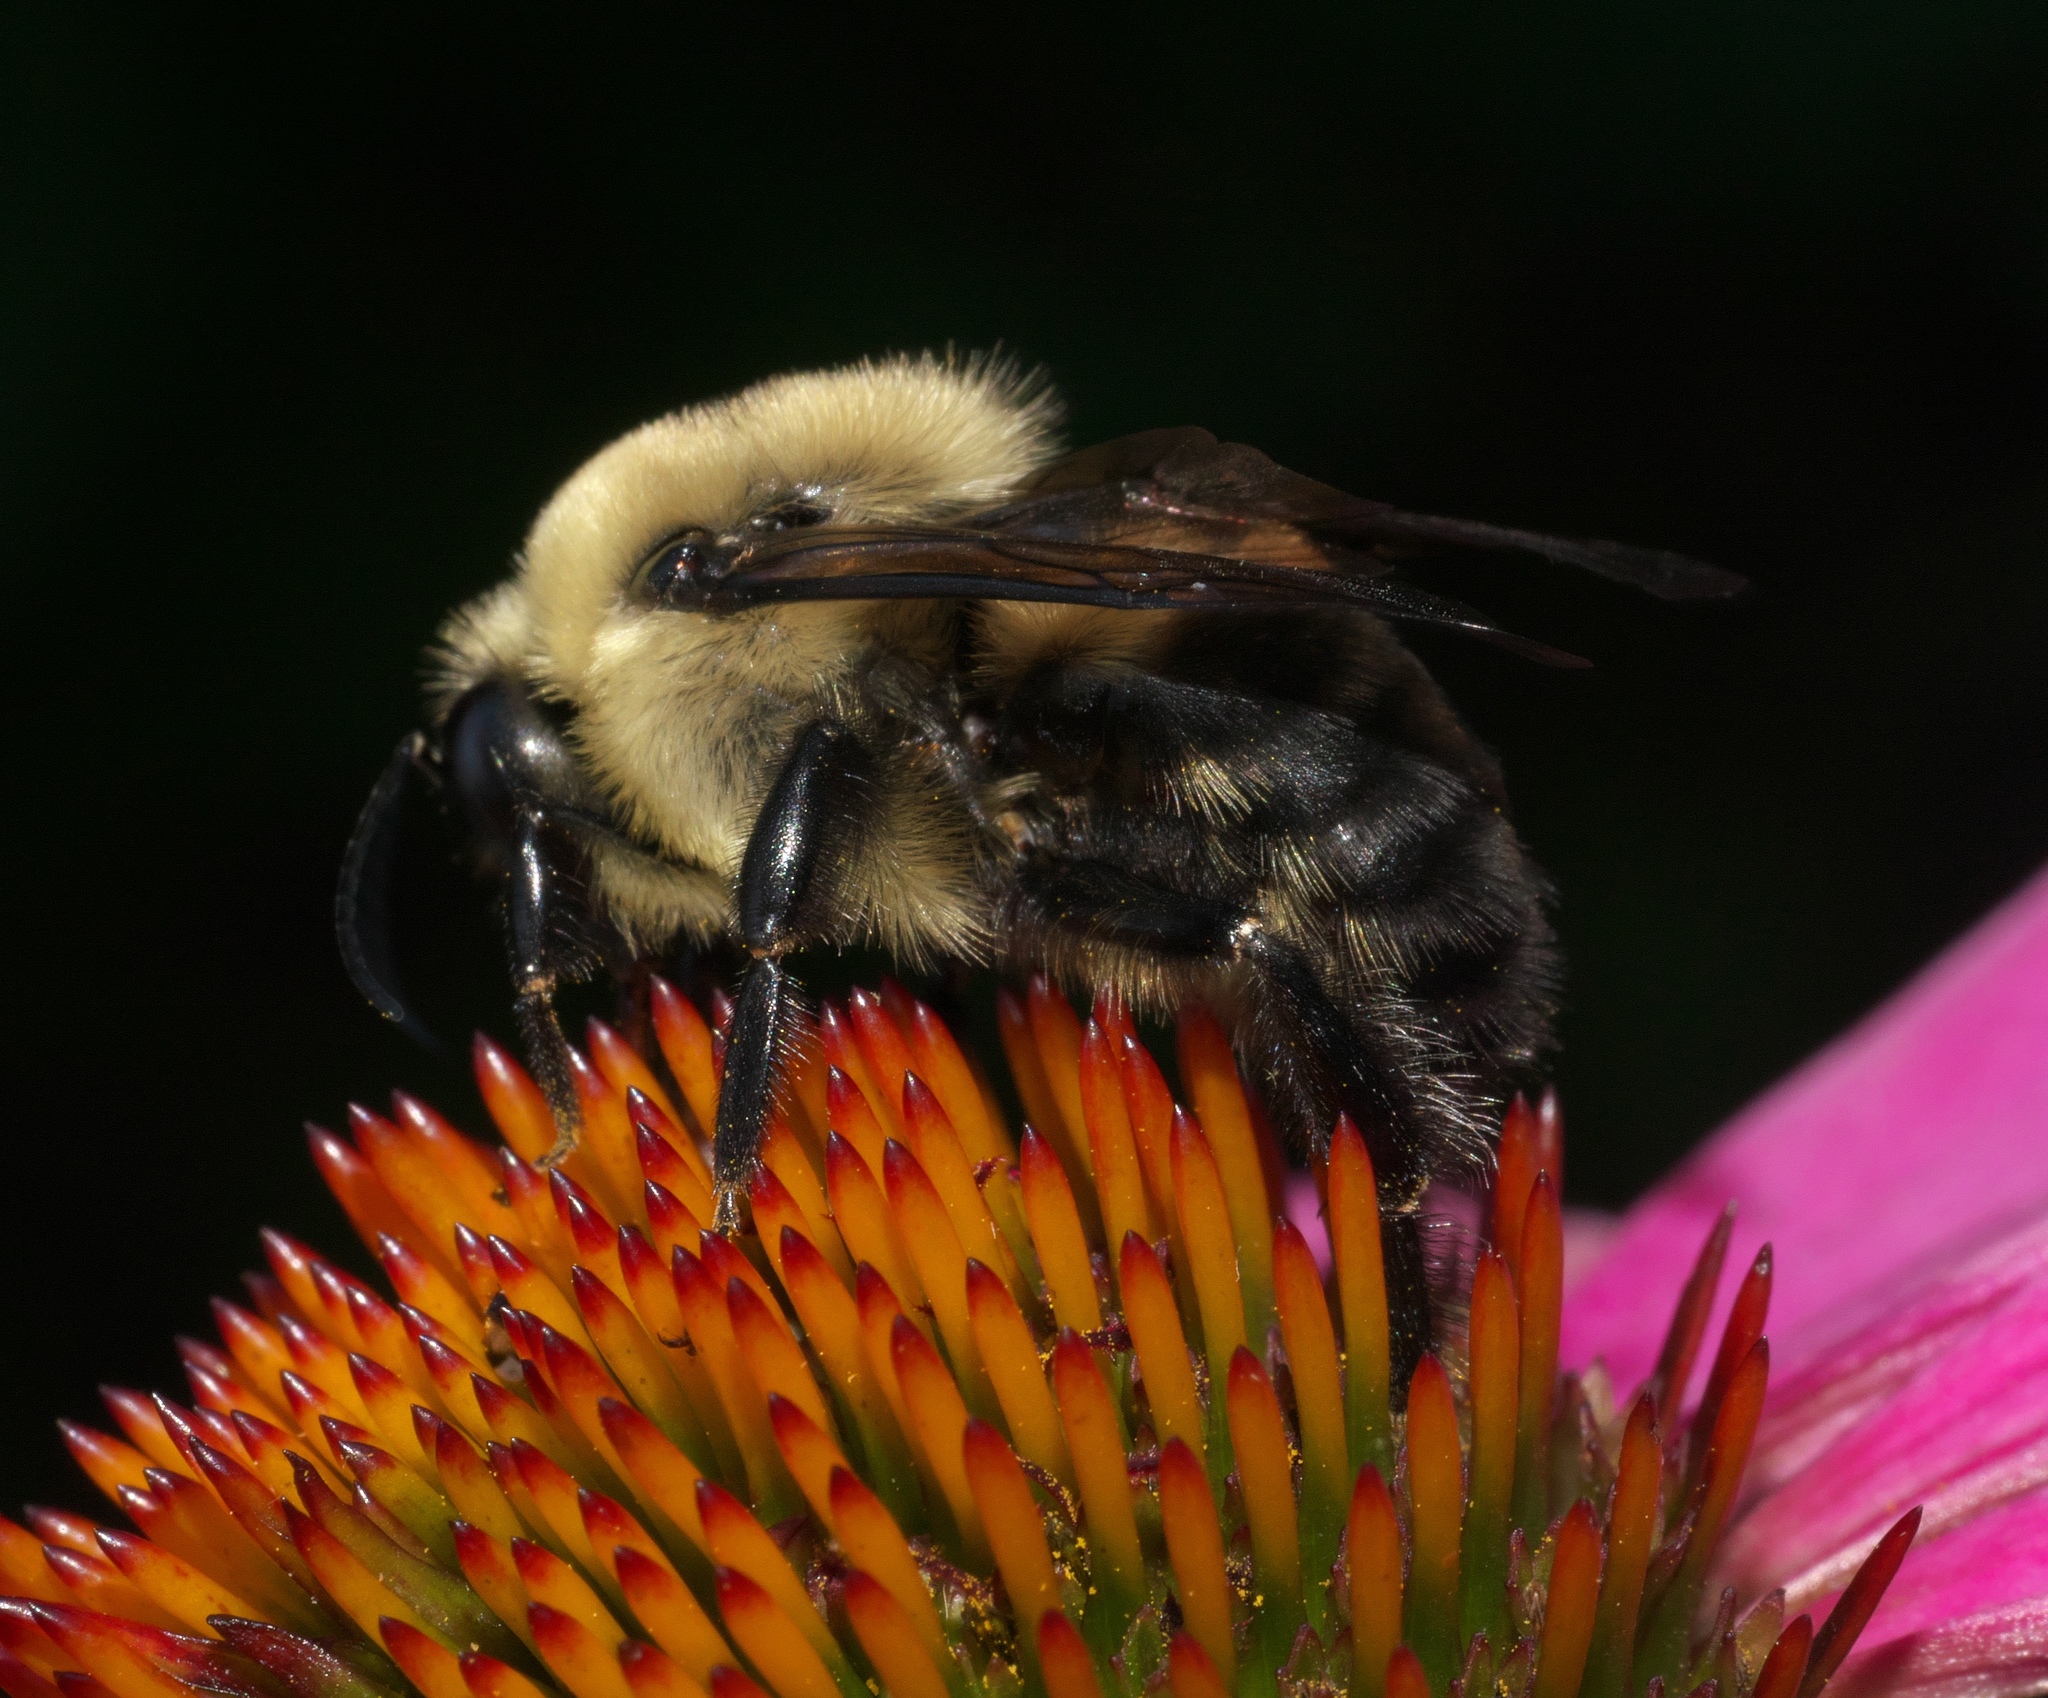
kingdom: Animalia
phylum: Arthropoda
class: Insecta
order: Hymenoptera
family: Apidae
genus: Bombus
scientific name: Bombus griseocollis
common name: Brown-belted bumble bee
